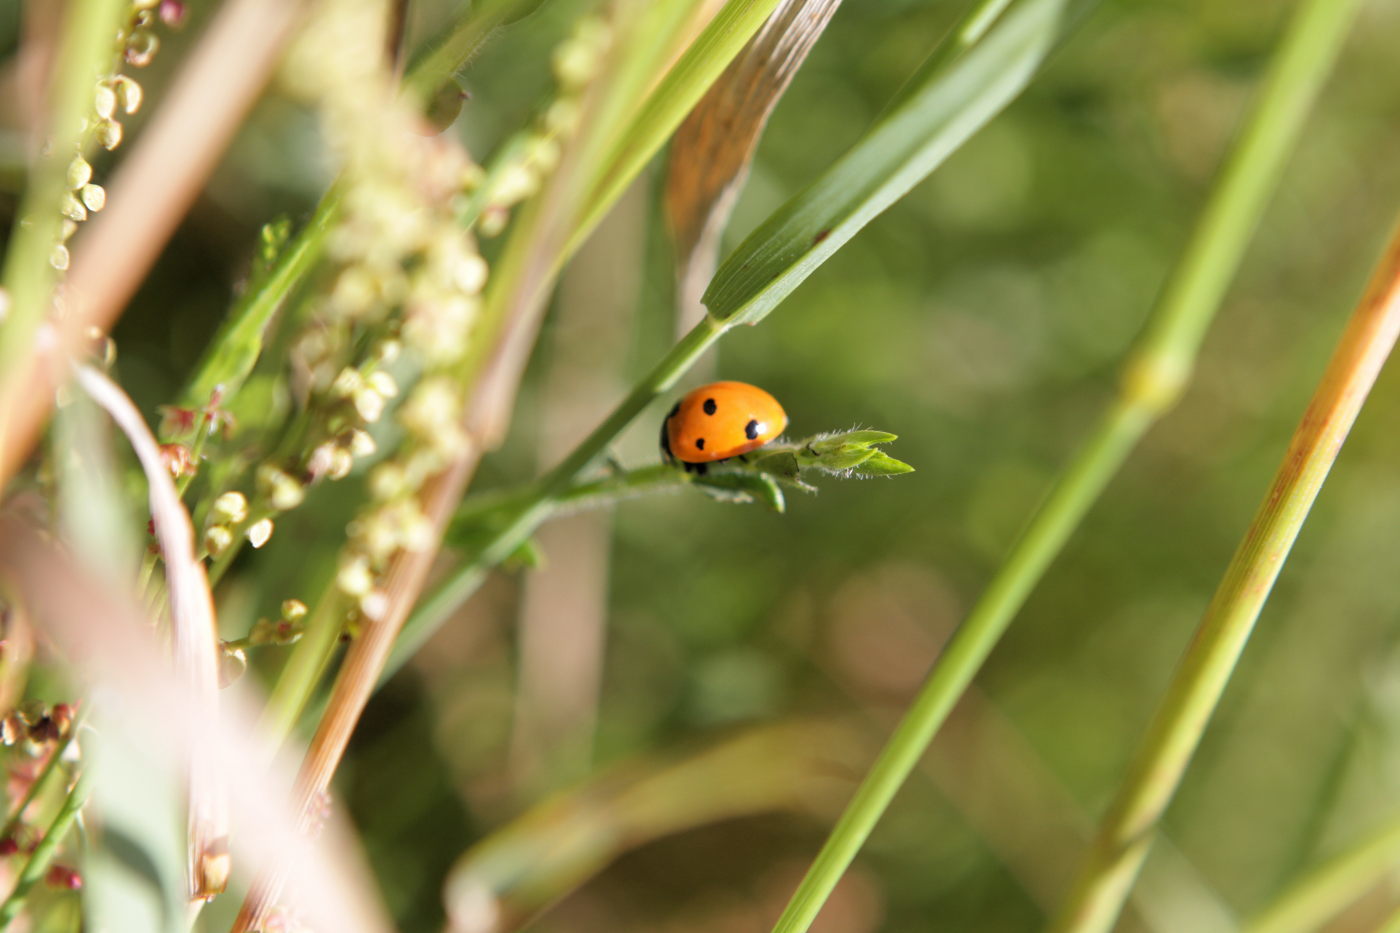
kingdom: Animalia
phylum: Arthropoda
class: Insecta
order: Coleoptera
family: Coccinellidae
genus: Coccinella
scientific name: Coccinella septempunctata
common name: Sevenspotted lady beetle
